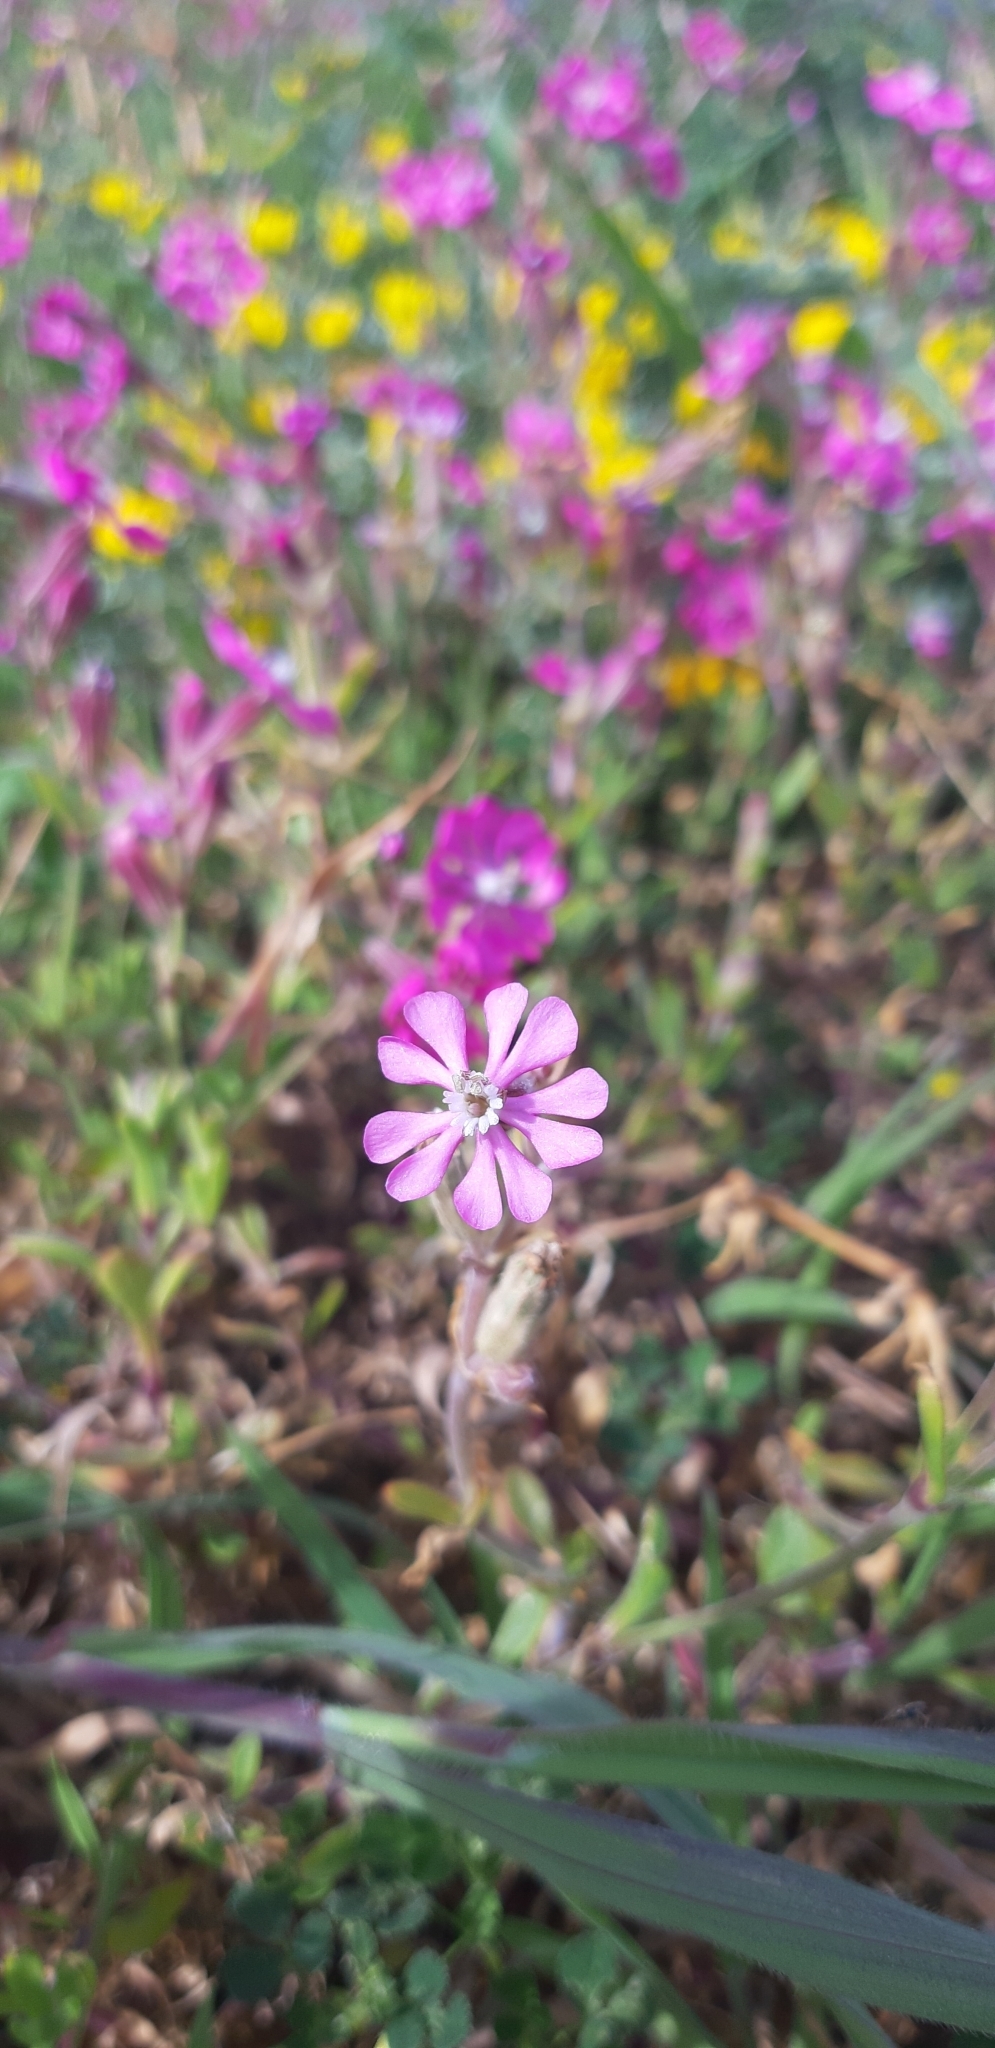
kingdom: Plantae
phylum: Tracheophyta
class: Magnoliopsida
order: Caryophyllales
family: Caryophyllaceae
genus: Silene
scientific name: Silene colorata
